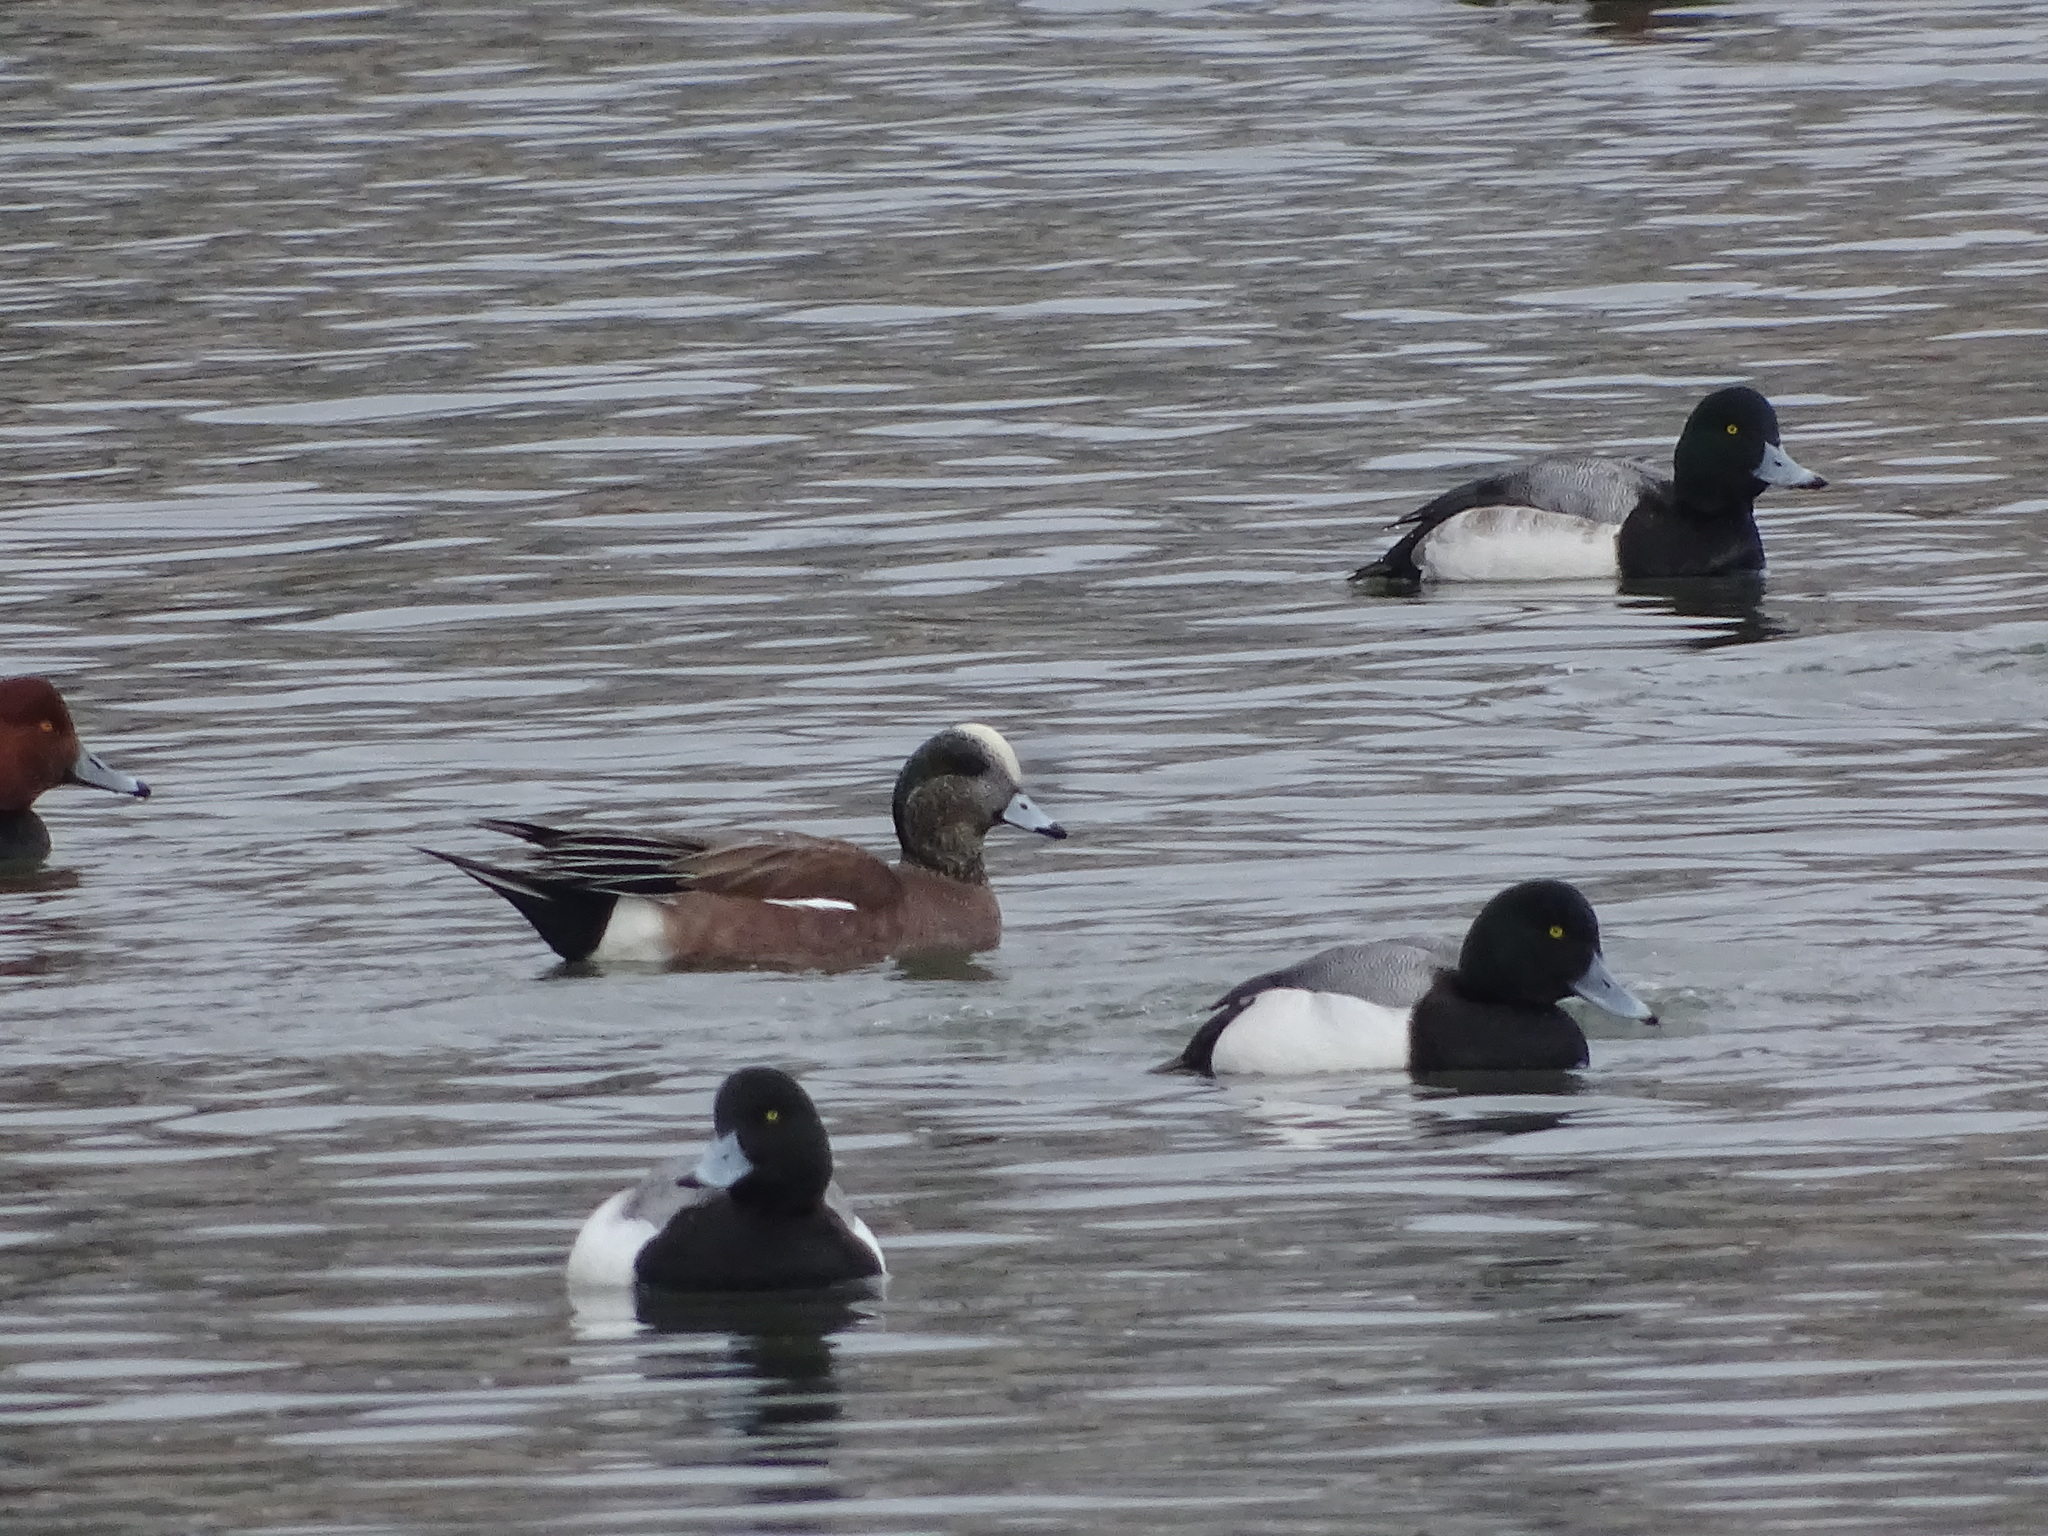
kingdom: Animalia
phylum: Chordata
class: Aves
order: Anseriformes
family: Anatidae
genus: Mareca
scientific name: Mareca americana
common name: American wigeon
